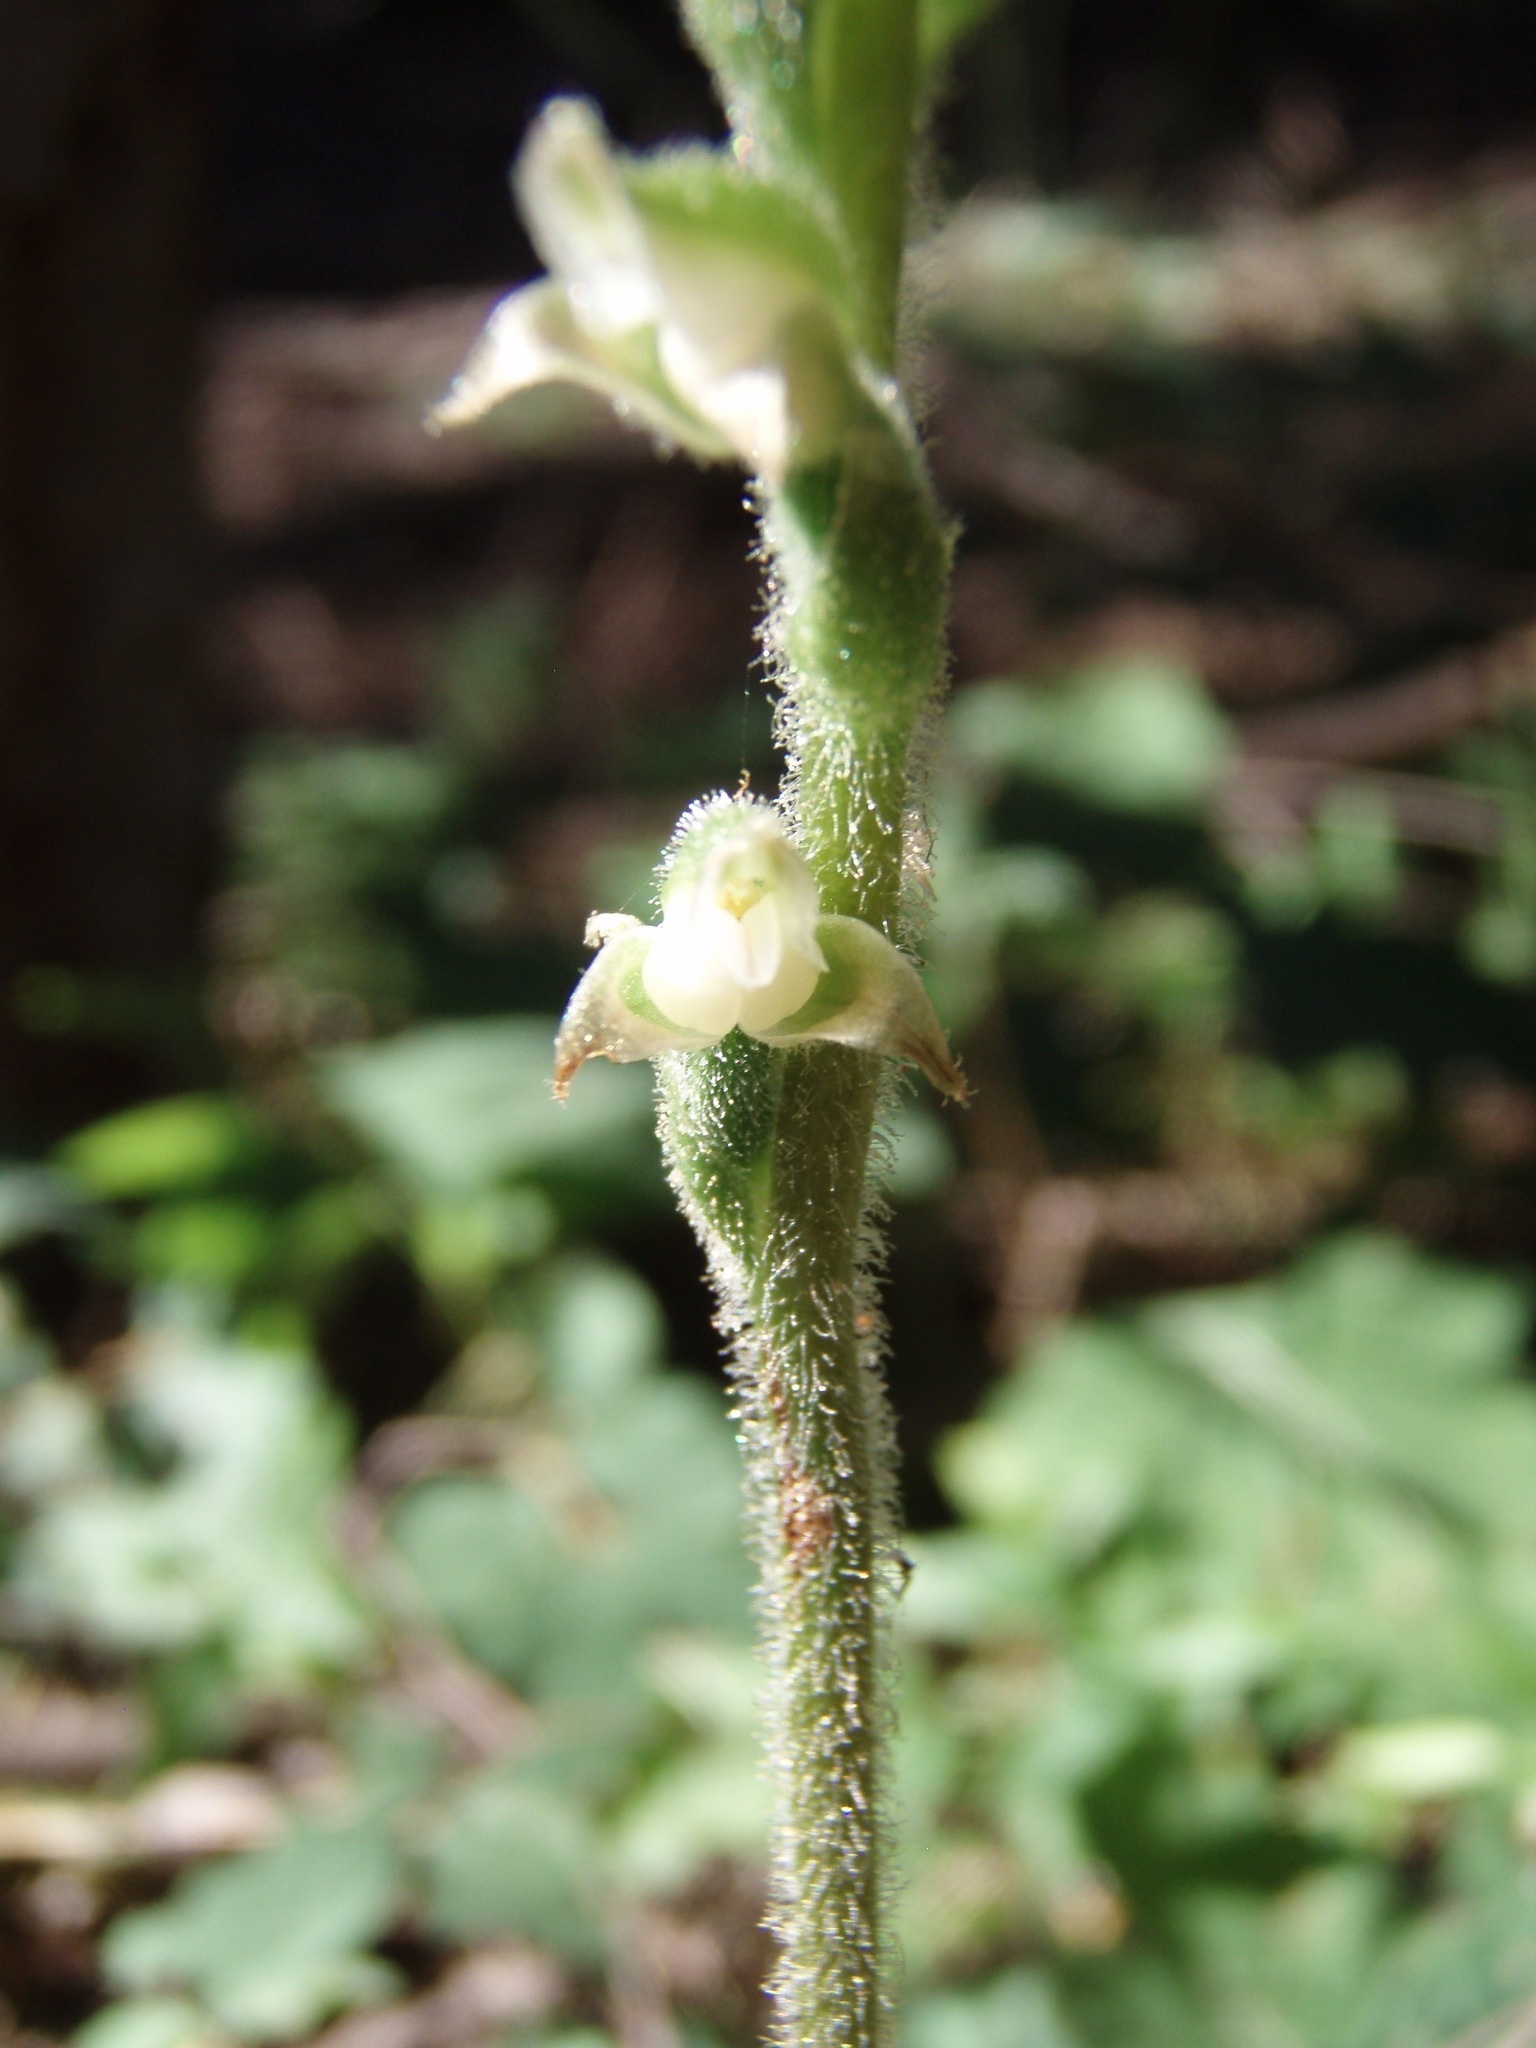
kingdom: Plantae
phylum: Tracheophyta
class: Liliopsida
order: Asparagales
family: Orchidaceae
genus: Goodyera
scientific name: Goodyera oblongifolia
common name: Giant rattlesnake-plantain
